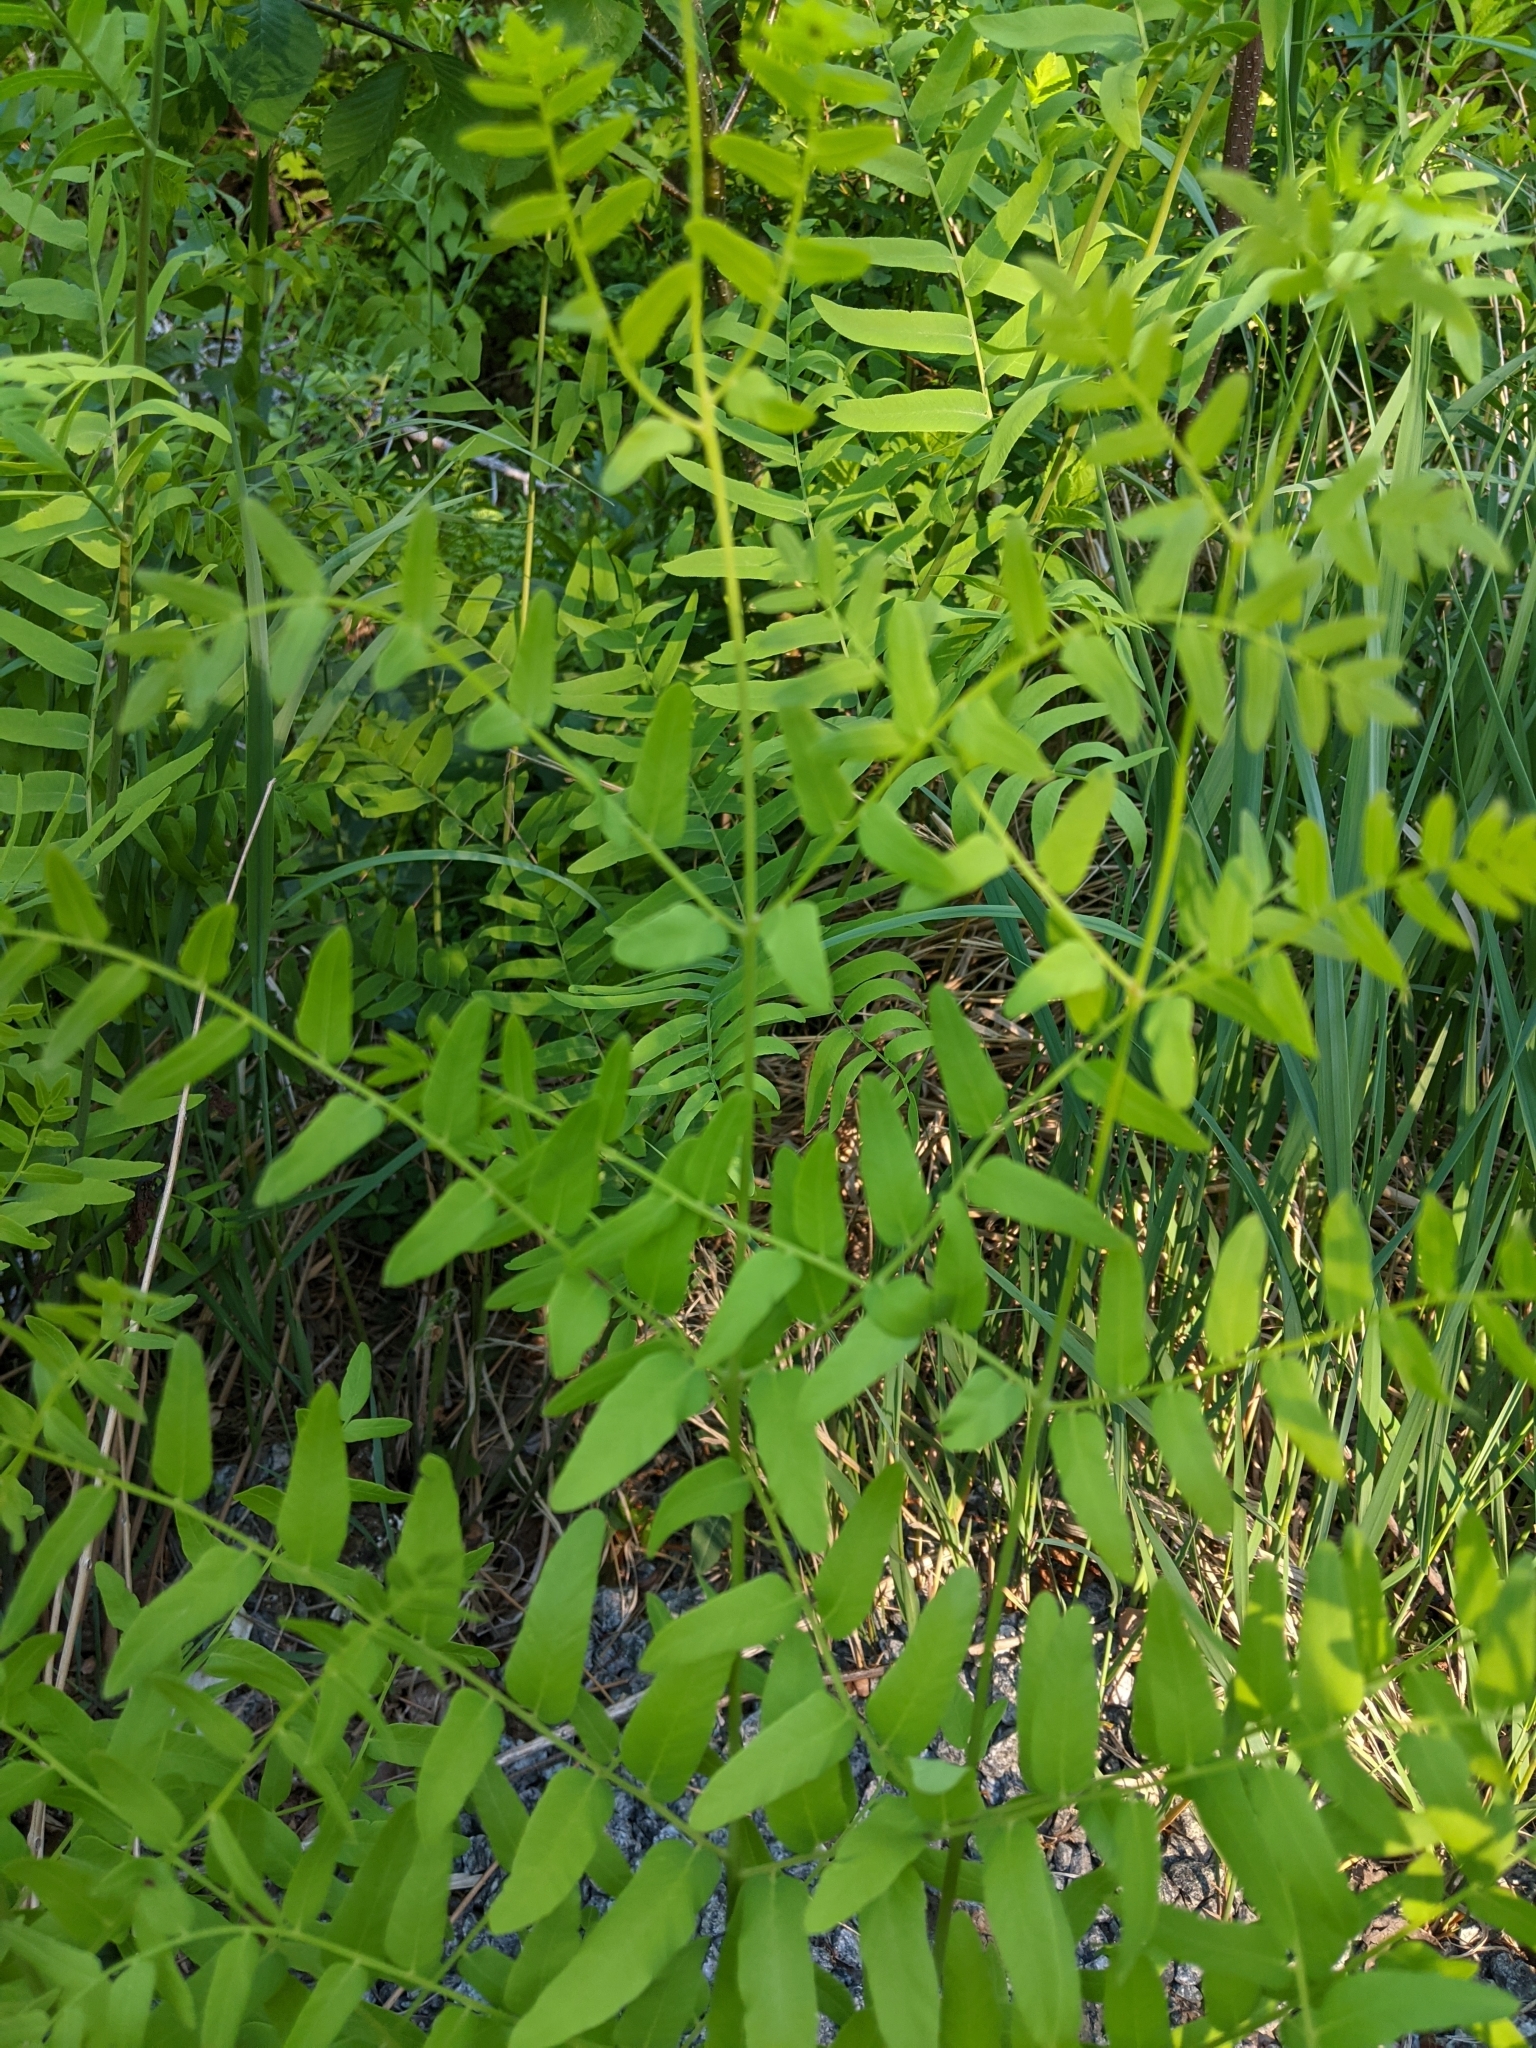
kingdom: Plantae
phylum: Tracheophyta
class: Polypodiopsida
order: Osmundales
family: Osmundaceae
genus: Osmunda
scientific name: Osmunda spectabilis
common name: American royal fern
